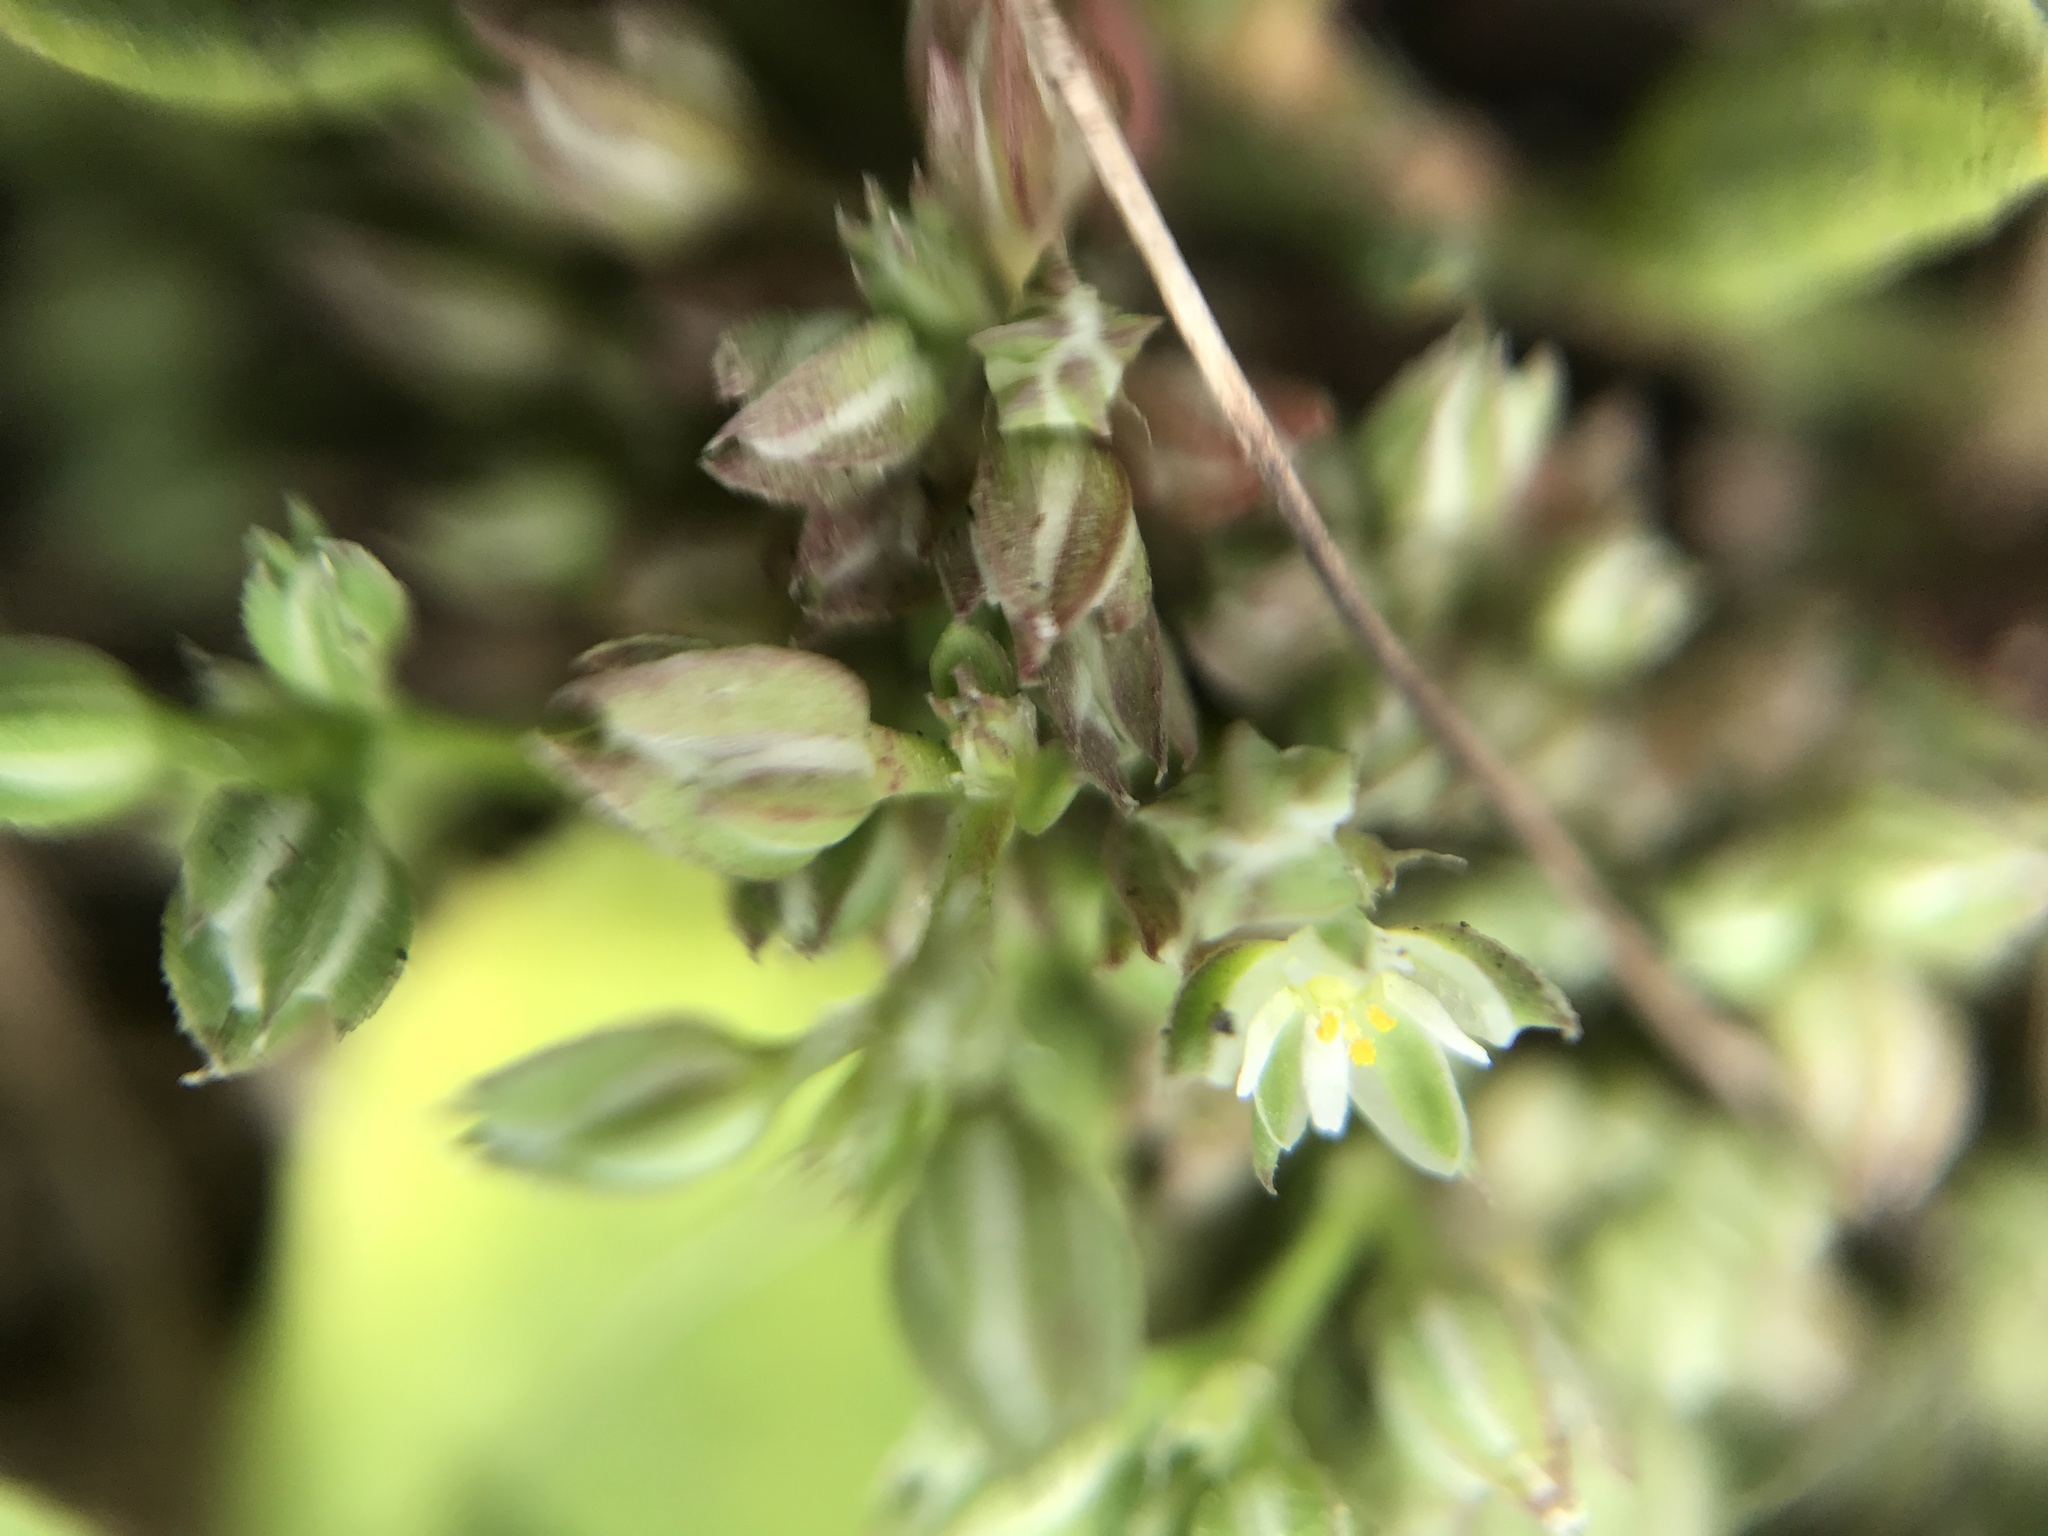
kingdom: Plantae
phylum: Tracheophyta
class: Magnoliopsida
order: Caryophyllales
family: Caryophyllaceae
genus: Polycarpon
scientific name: Polycarpon tetraphyllum
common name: Four-leaved all-seed
